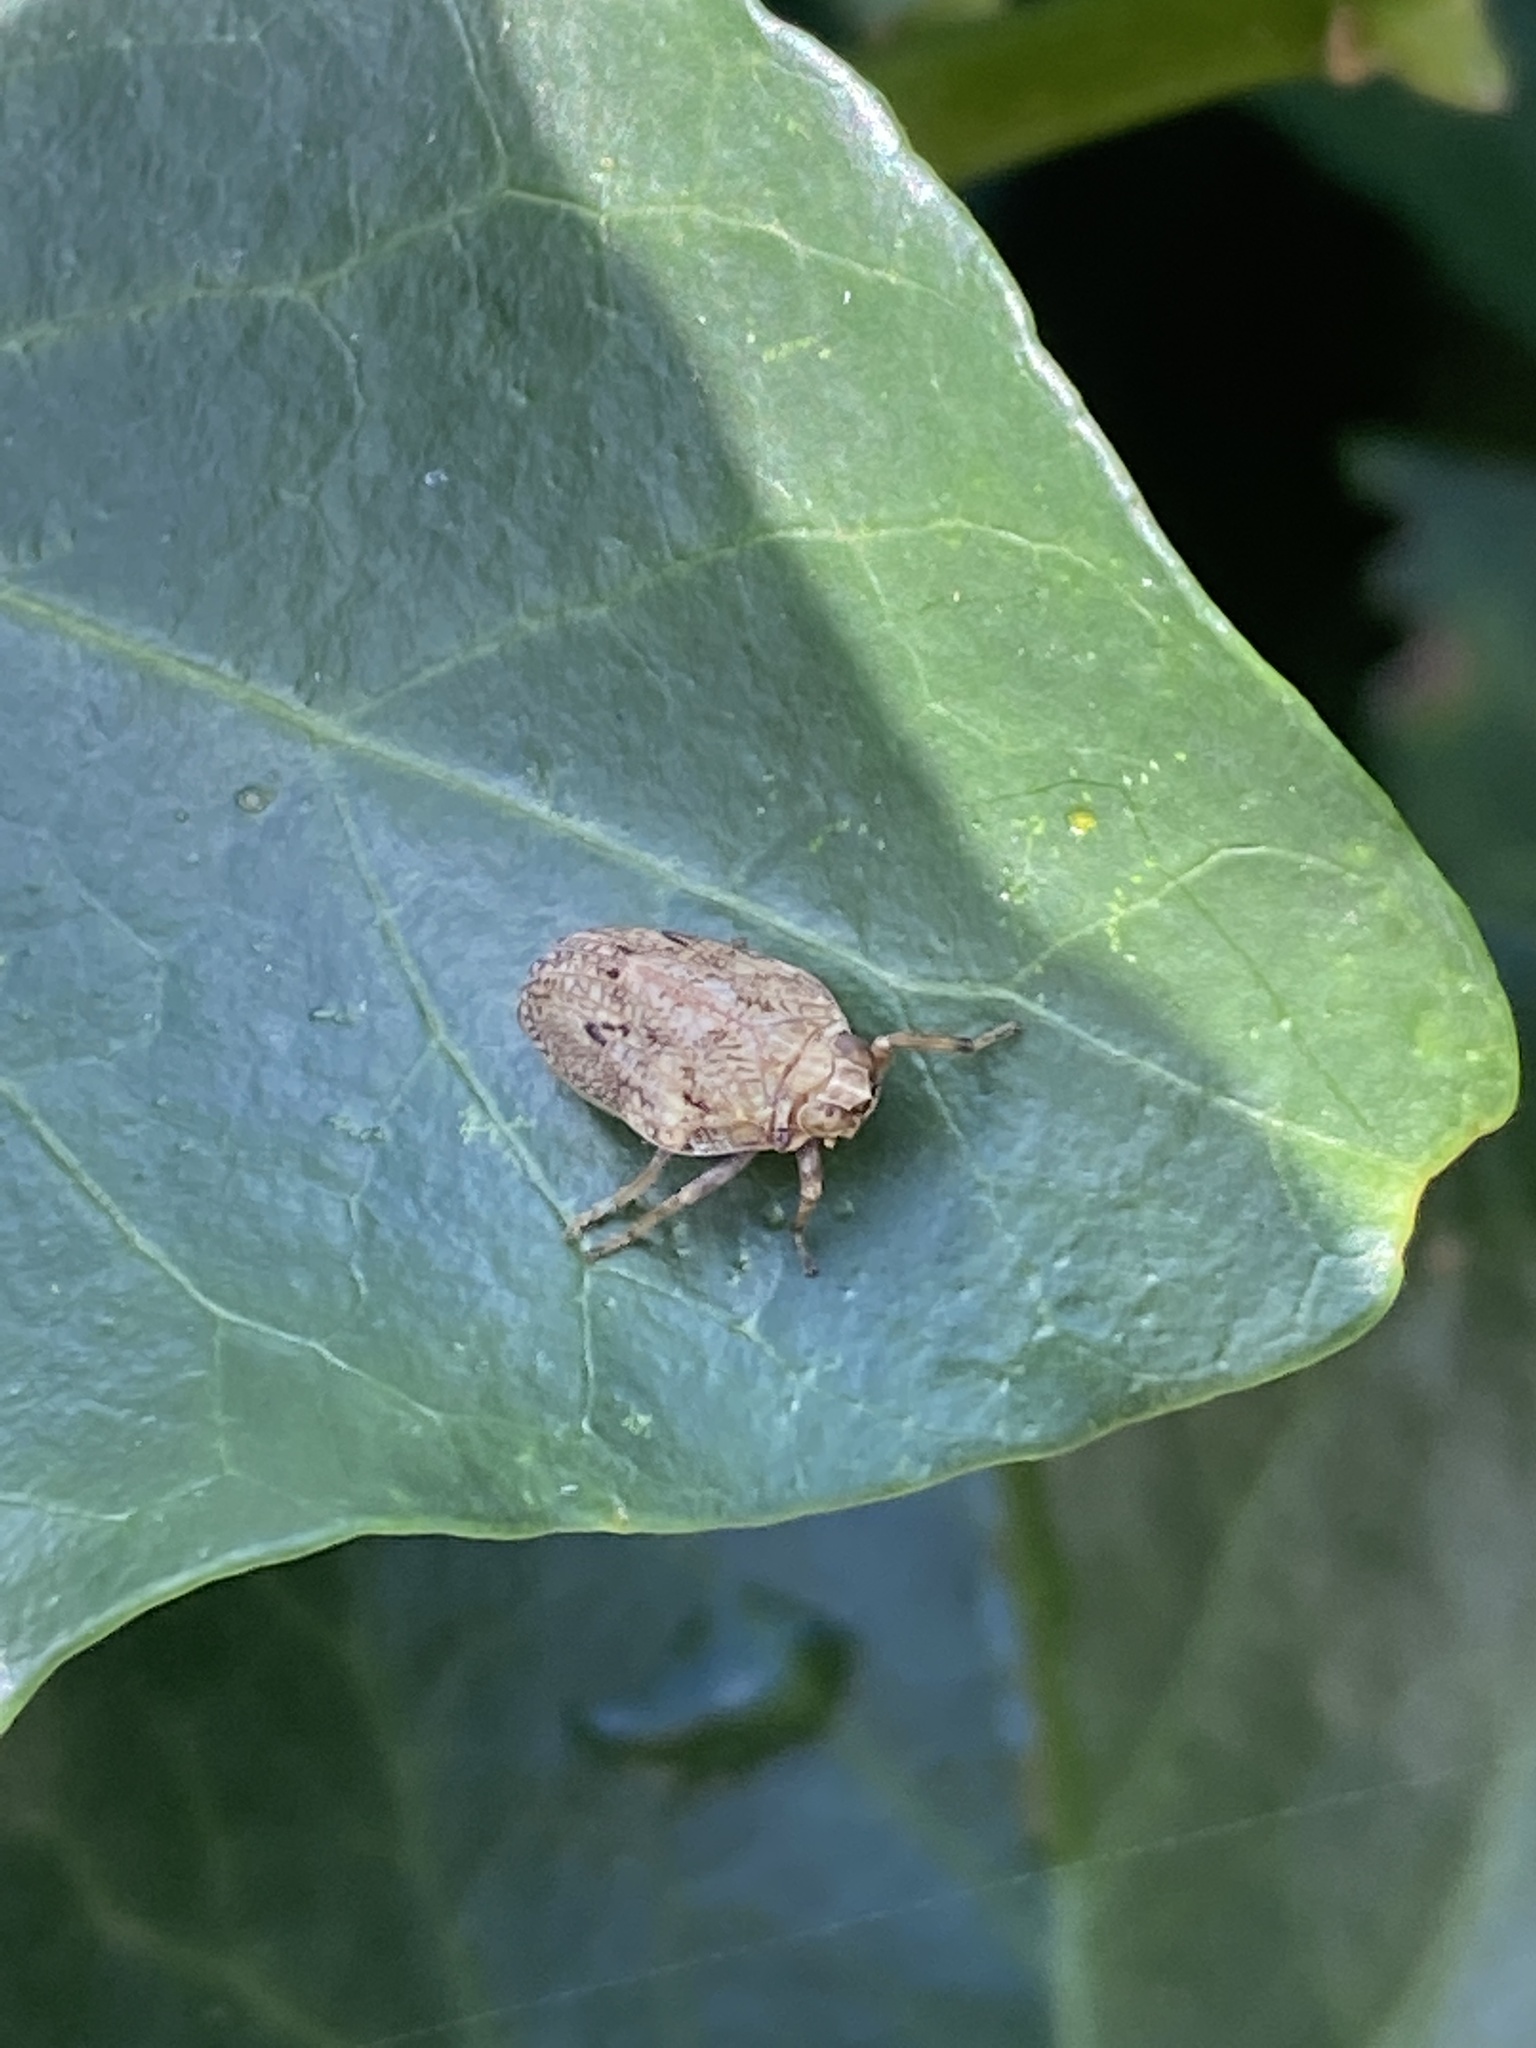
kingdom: Animalia
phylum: Arthropoda
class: Insecta
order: Hemiptera
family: Issidae
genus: Issus
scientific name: Issus coleoptratus
